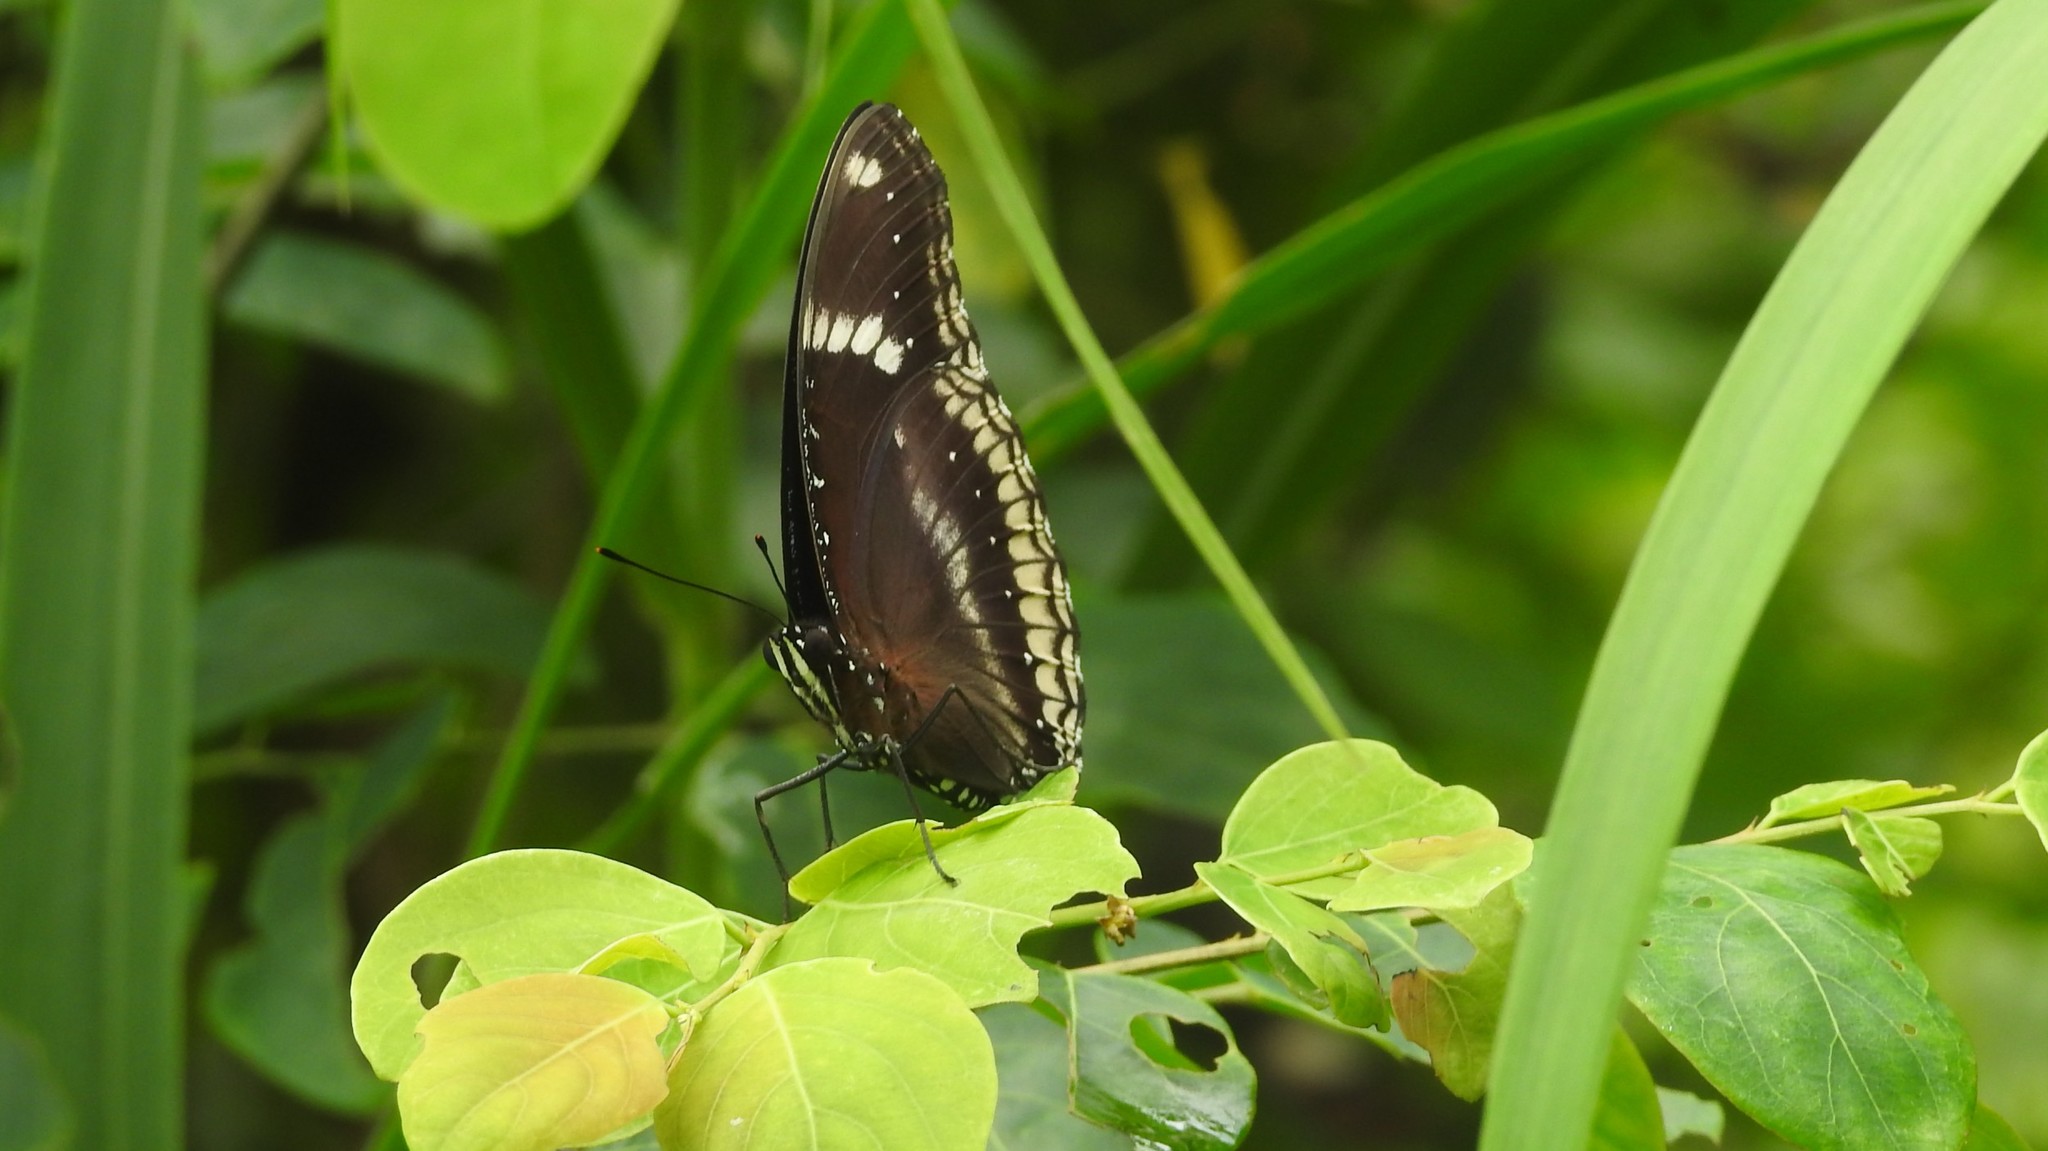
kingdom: Animalia
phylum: Arthropoda
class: Insecta
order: Lepidoptera
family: Nymphalidae
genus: Hypolimnas
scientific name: Hypolimnas bolina
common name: Great eggfly
